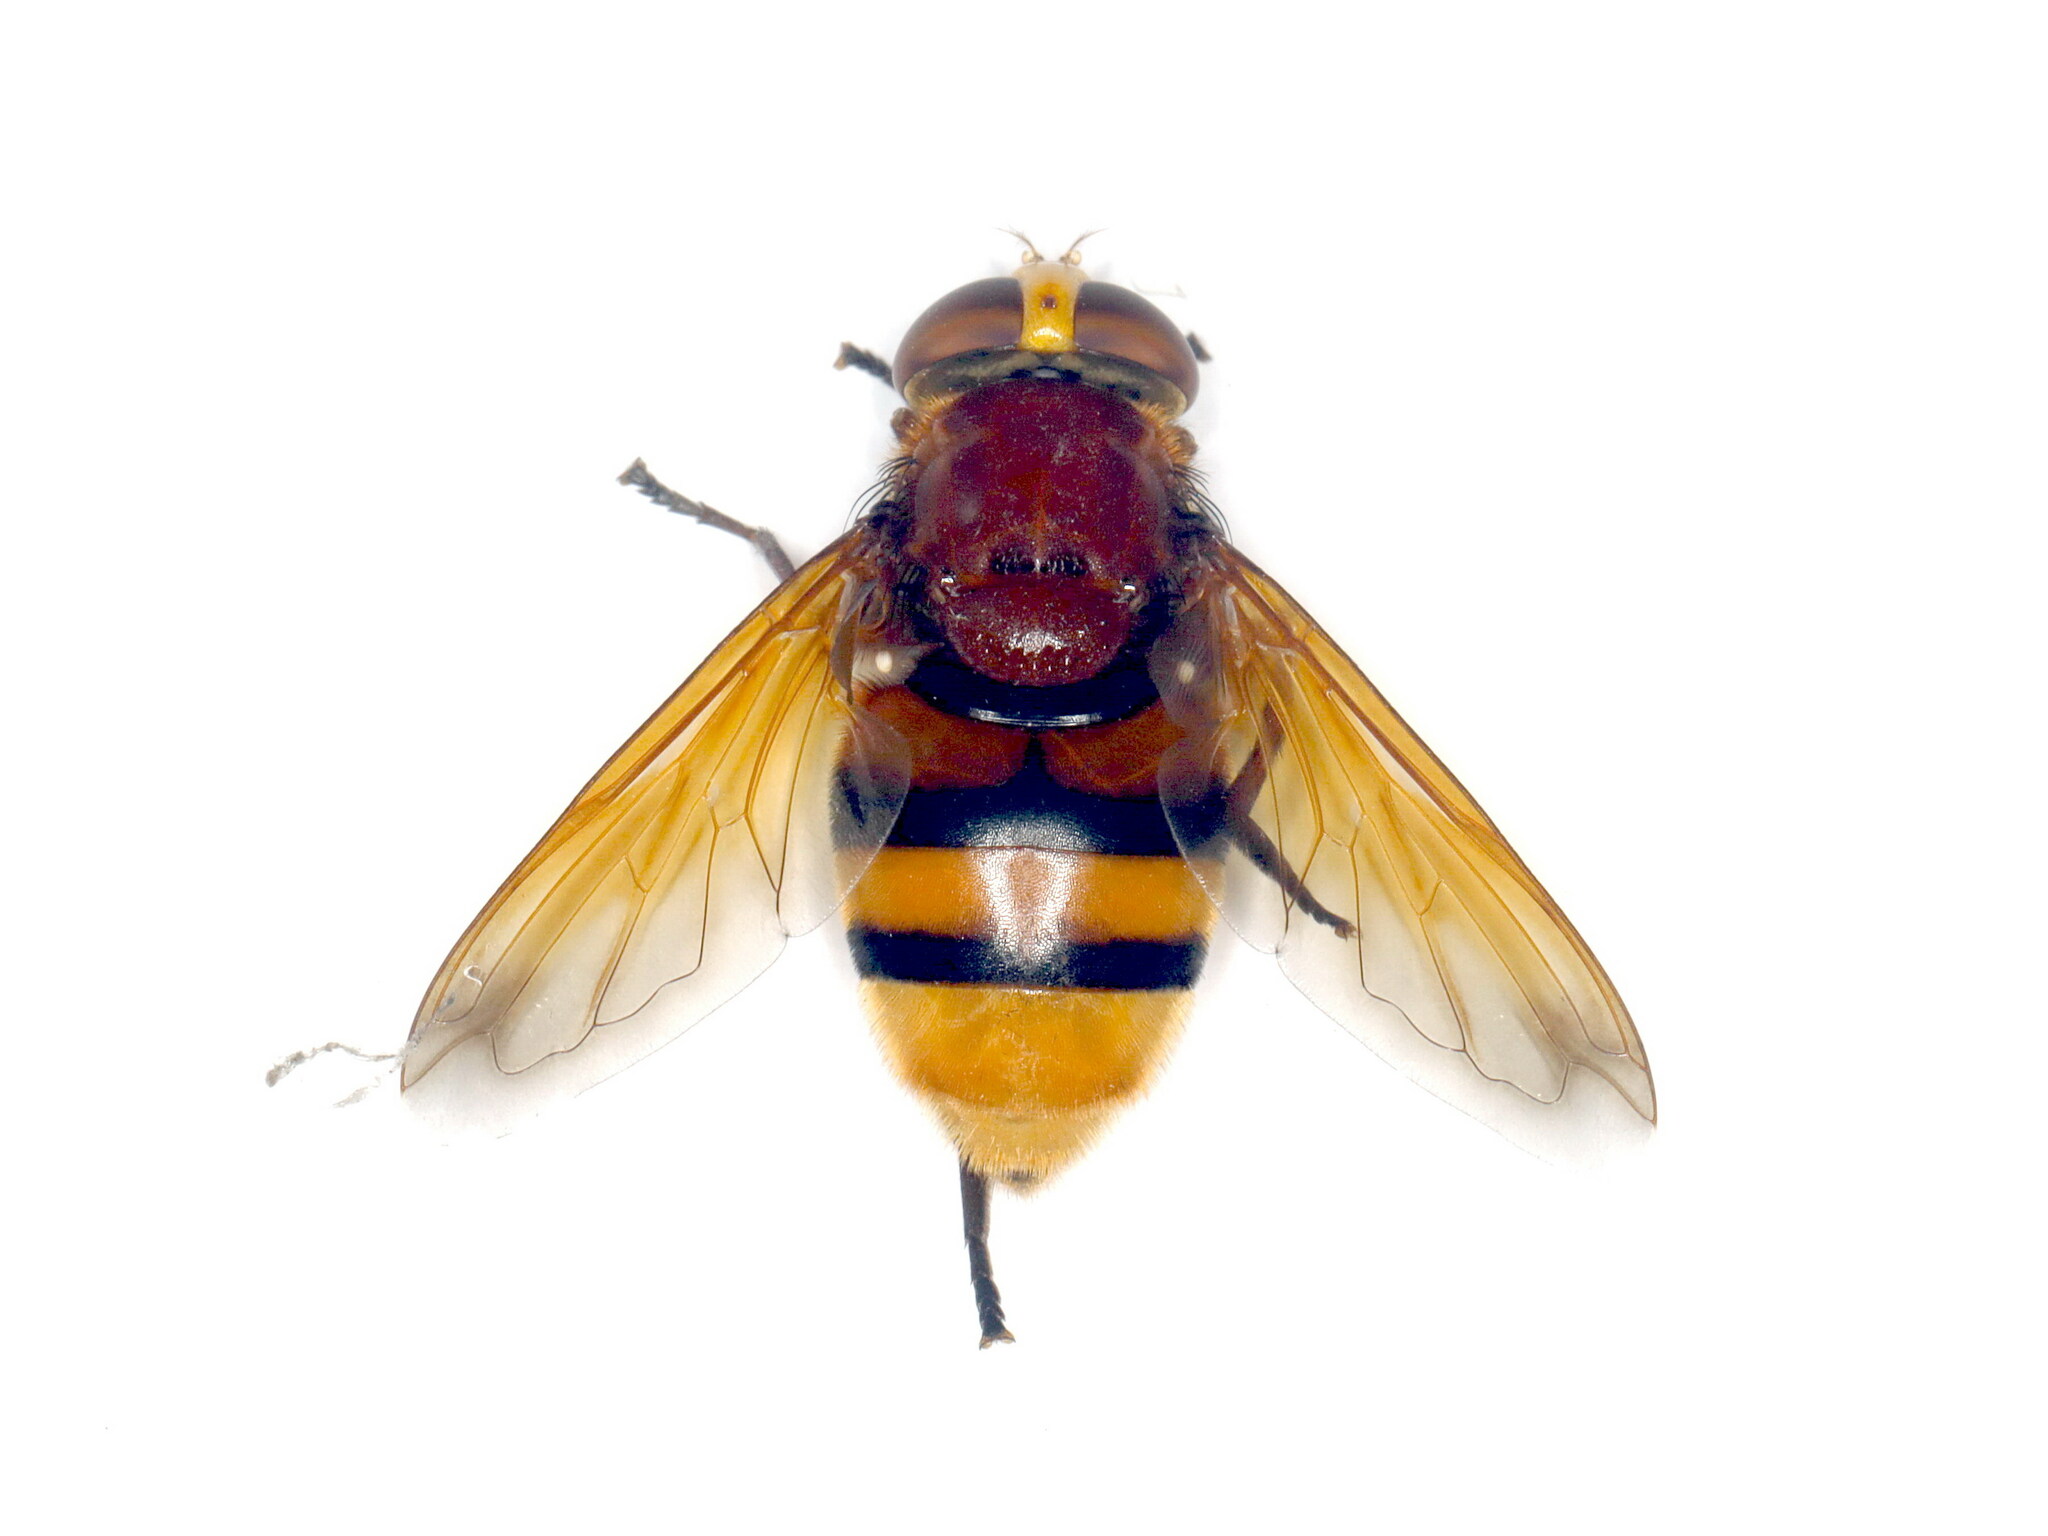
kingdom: Animalia
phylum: Arthropoda
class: Insecta
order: Diptera
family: Syrphidae
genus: Volucella
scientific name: Volucella zonaria
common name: Hornet hoverfly
